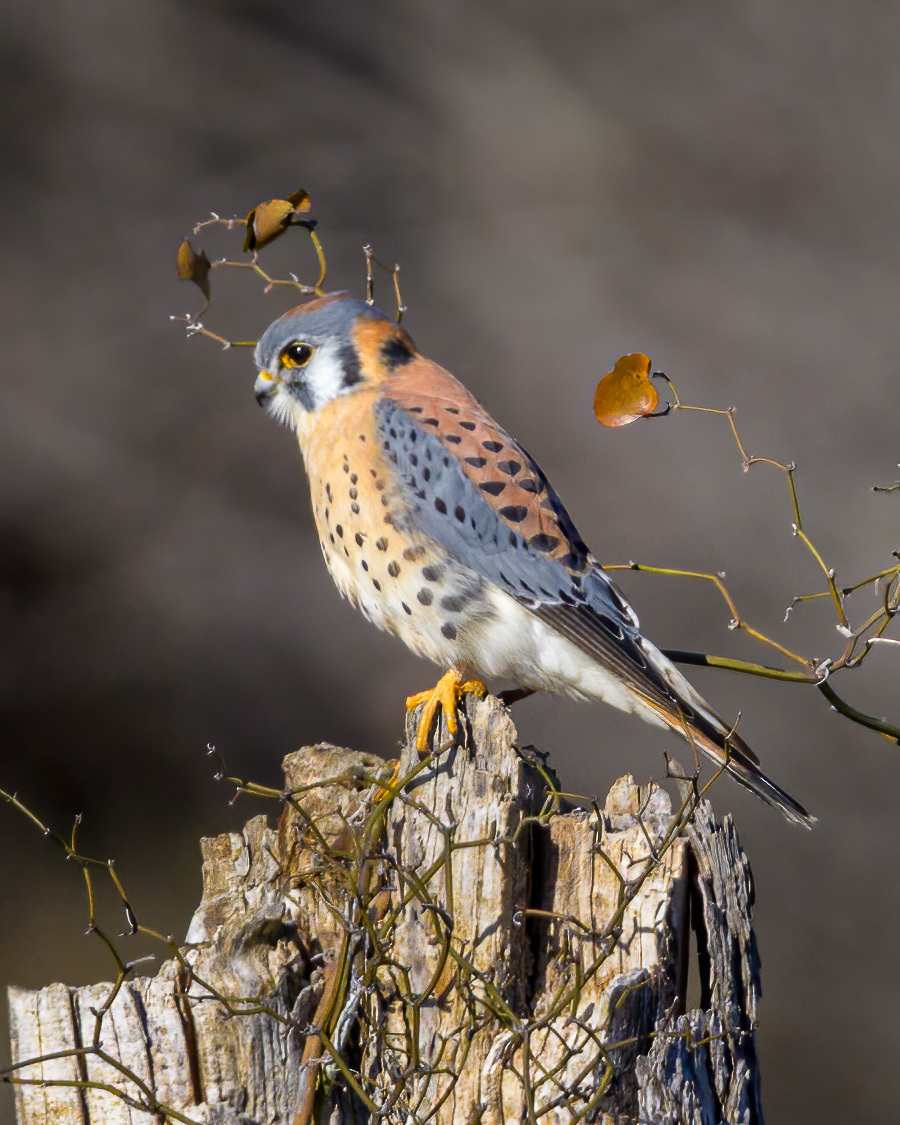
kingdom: Animalia
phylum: Chordata
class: Aves
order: Falconiformes
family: Falconidae
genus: Falco
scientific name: Falco sparverius
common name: American kestrel
